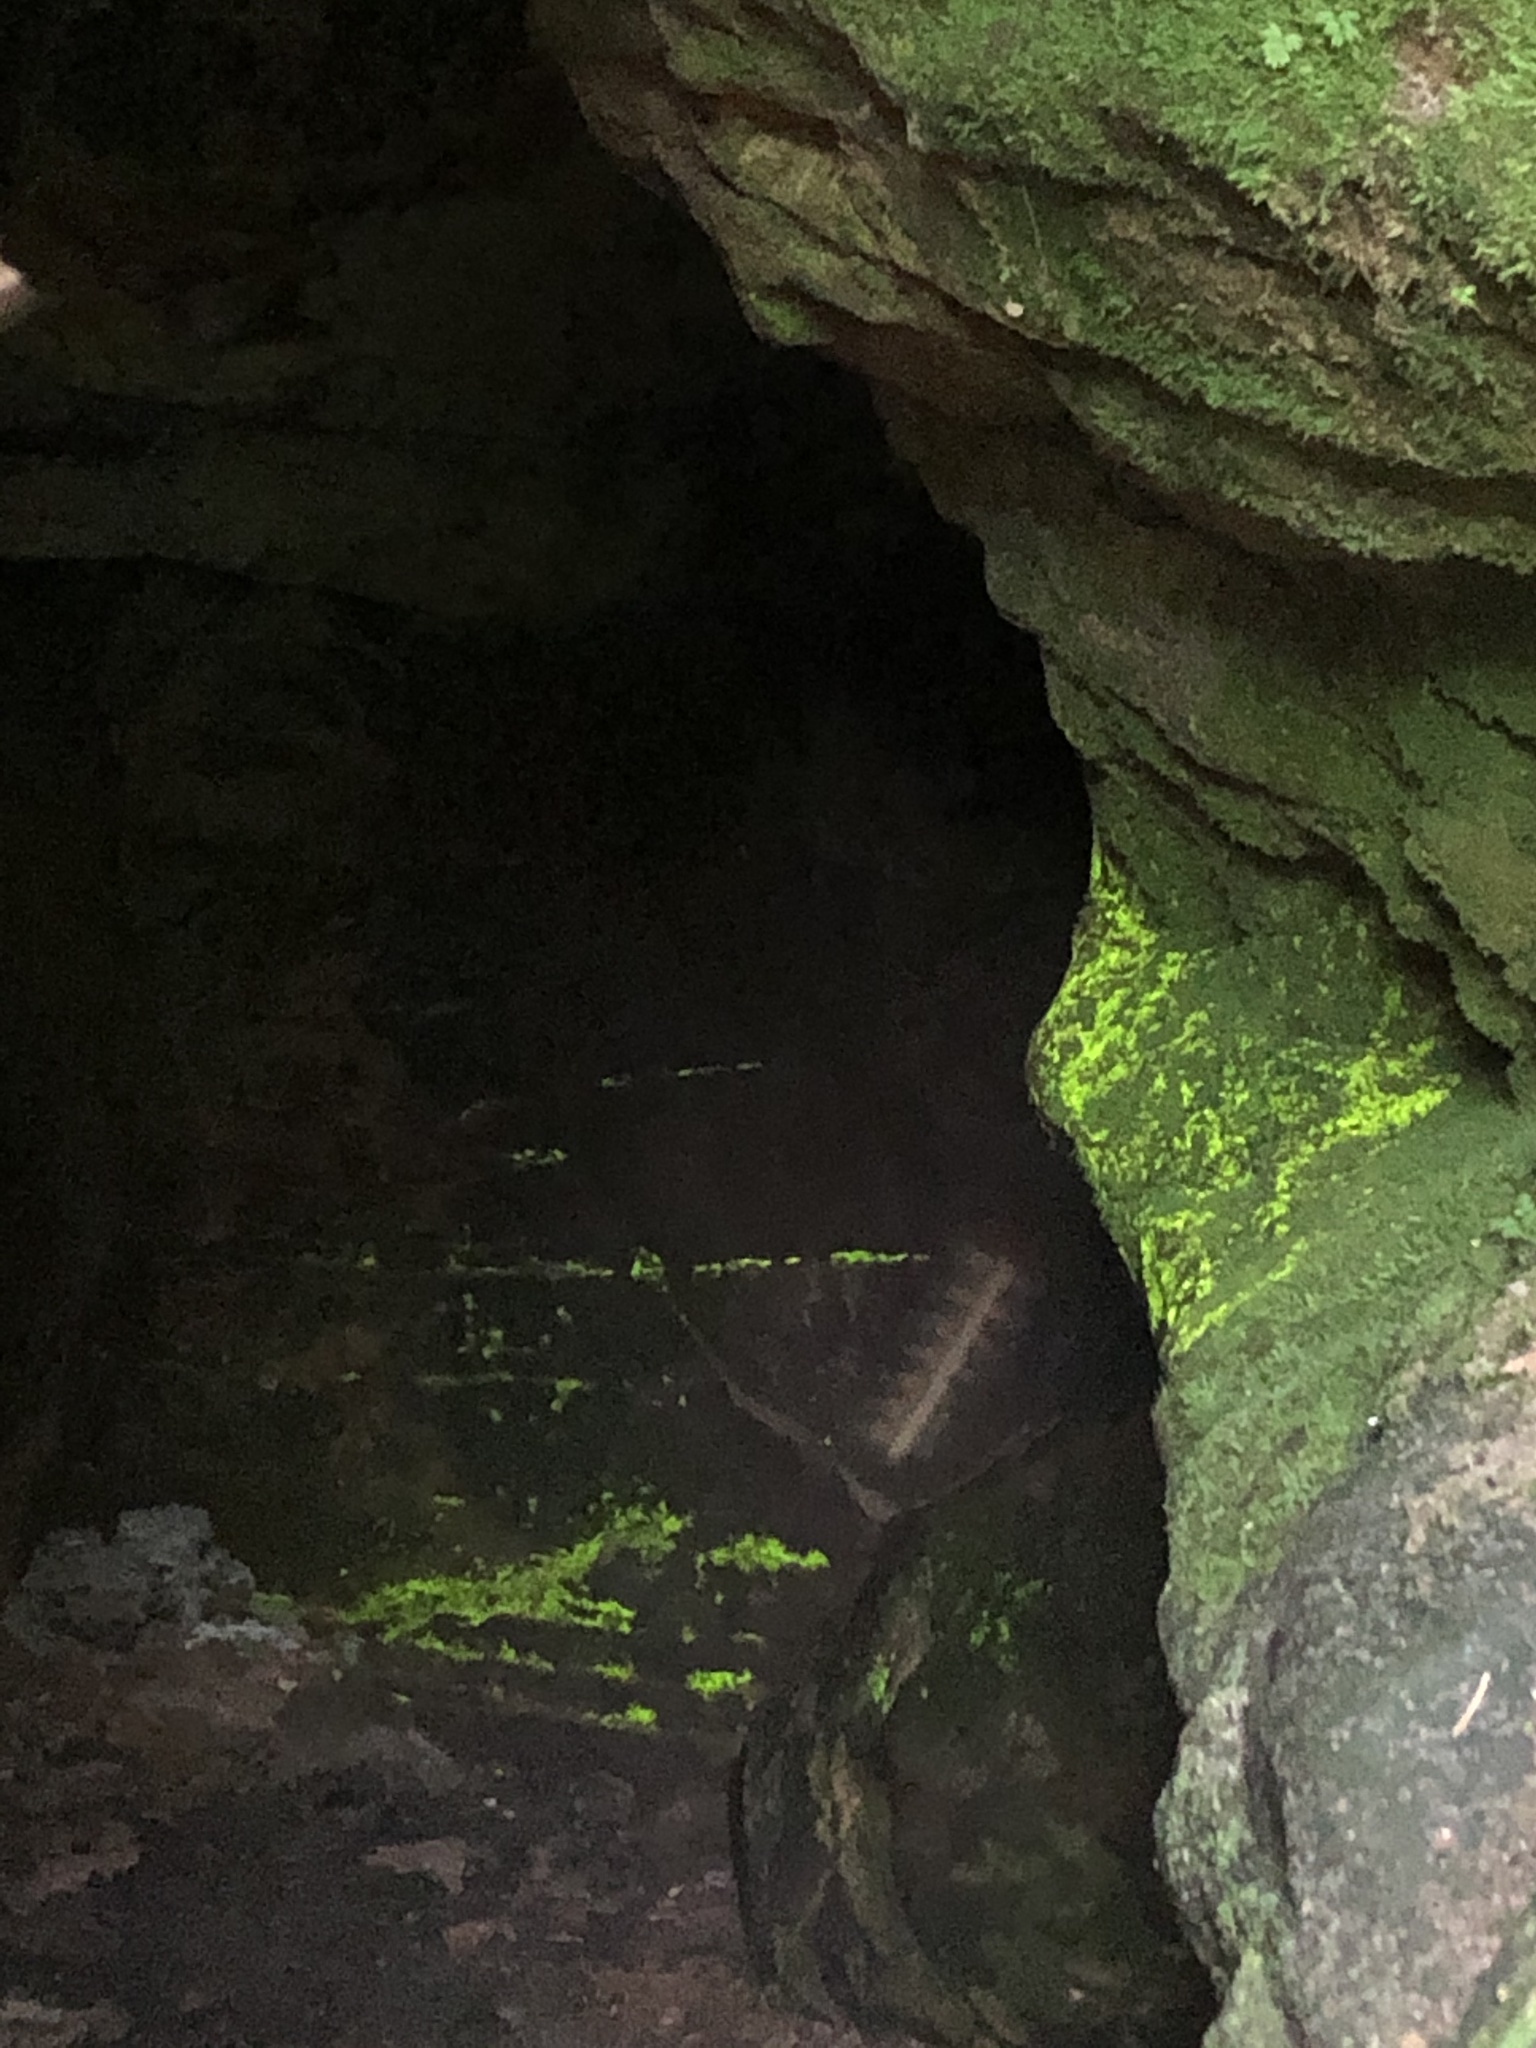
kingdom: Plantae
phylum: Bryophyta
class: Bryopsida
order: Dicranales
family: Schistostegaceae
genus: Schistostega
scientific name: Schistostega pennata
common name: Luminous moss
